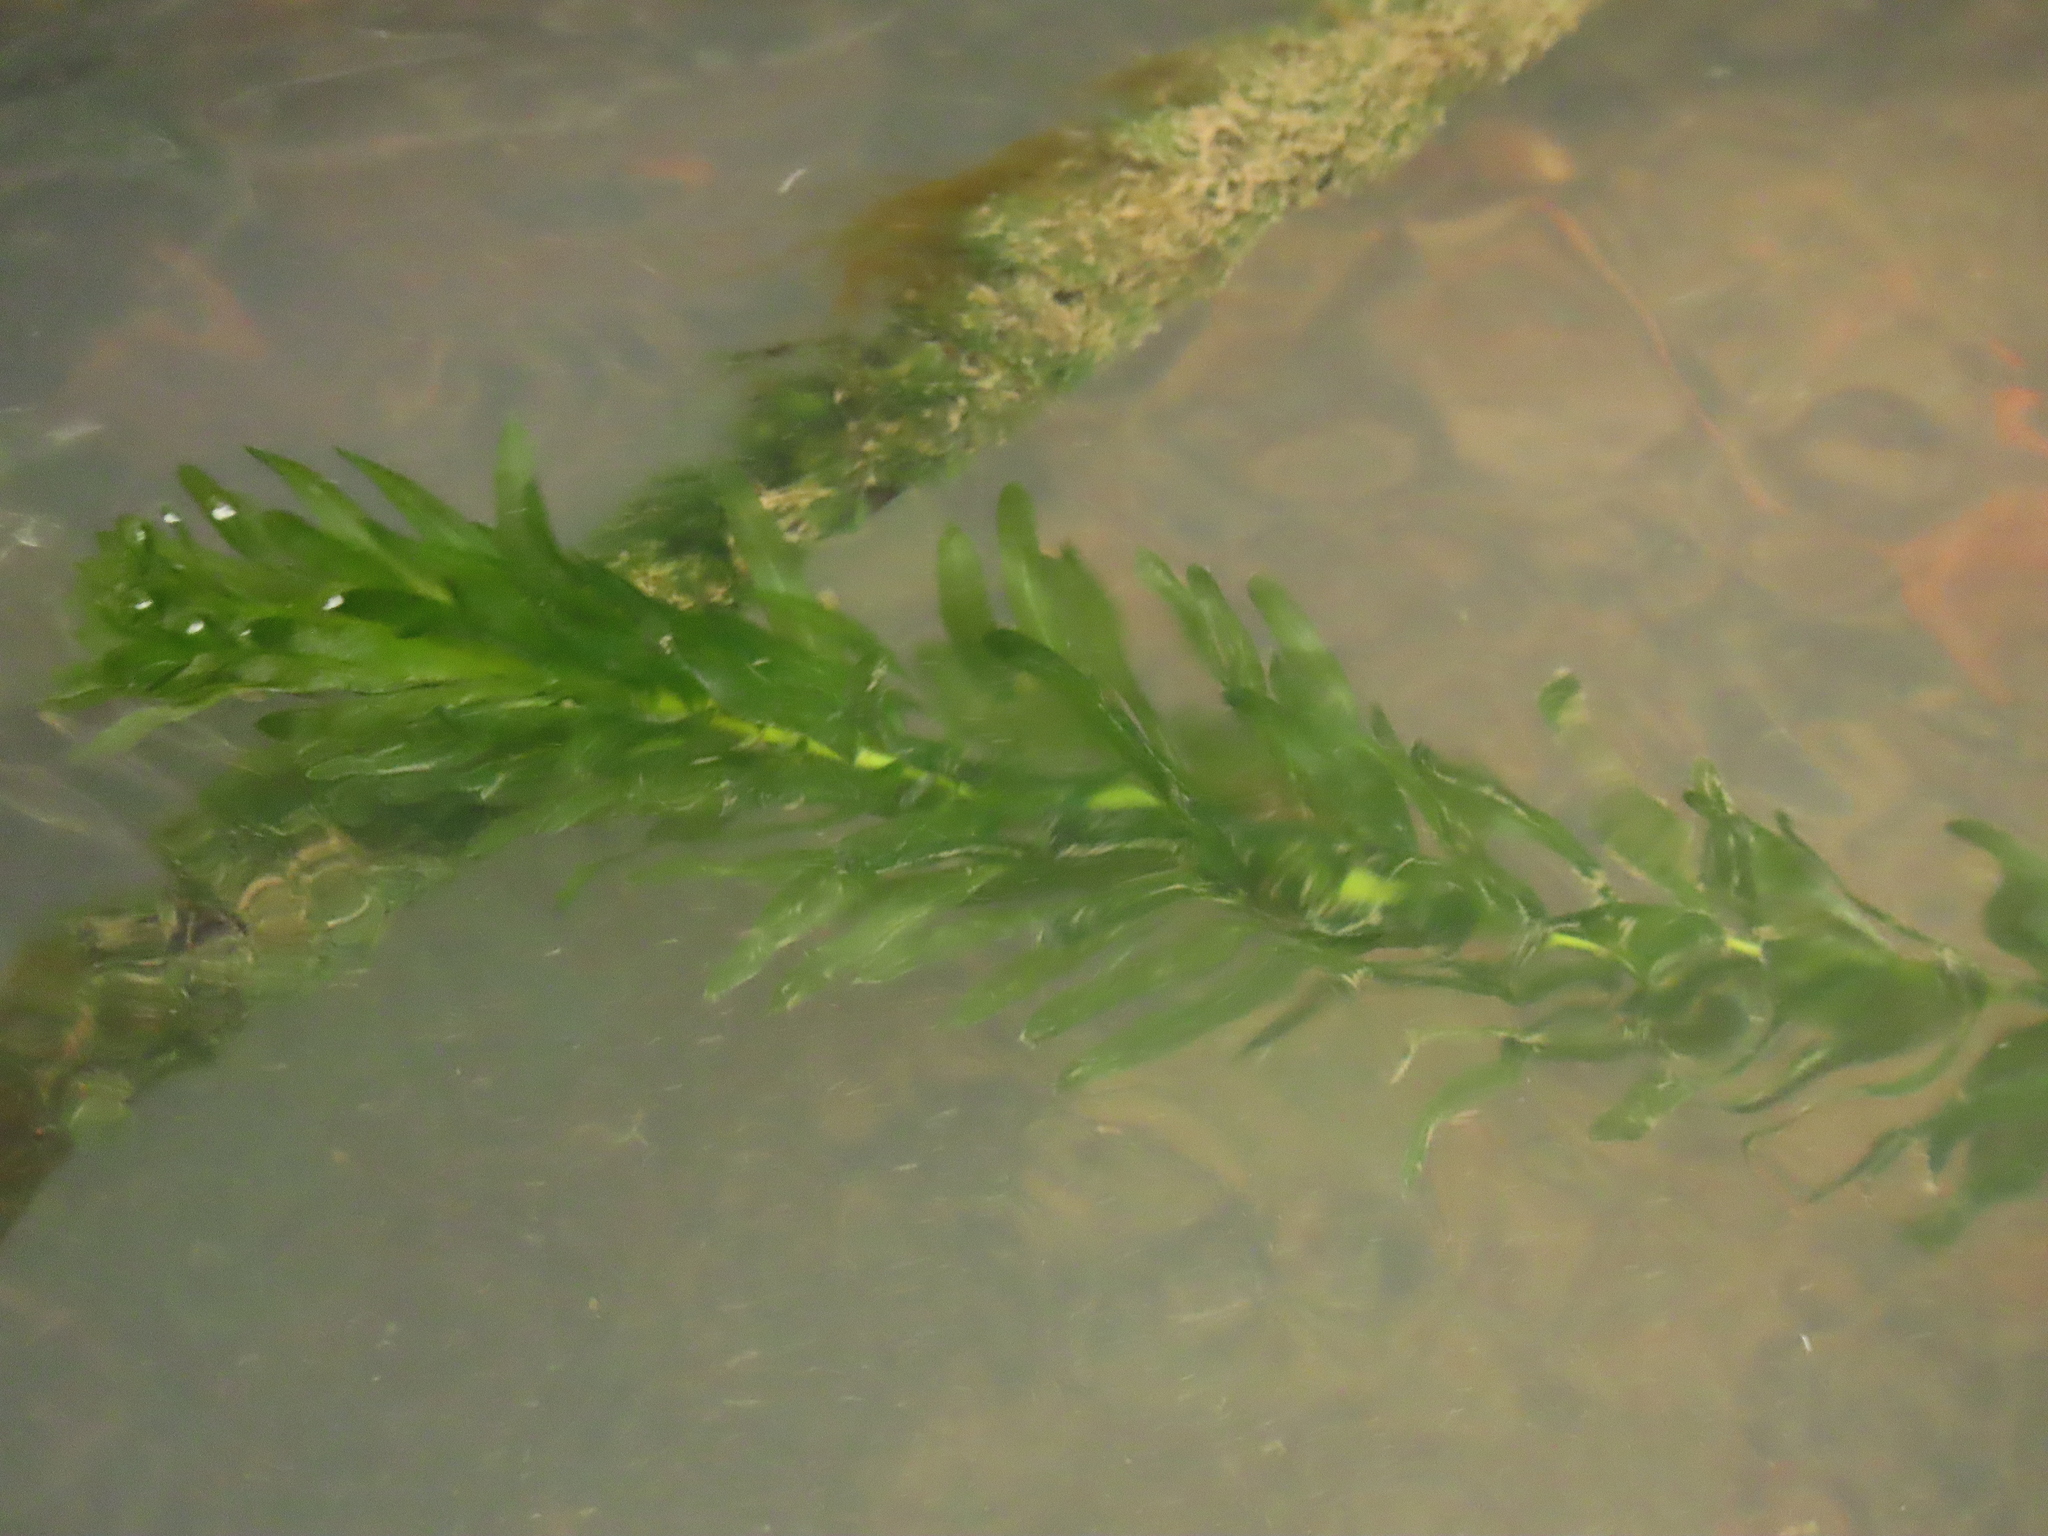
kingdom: Plantae
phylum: Tracheophyta
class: Liliopsida
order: Alismatales
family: Hydrocharitaceae
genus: Elodea
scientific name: Elodea densa
